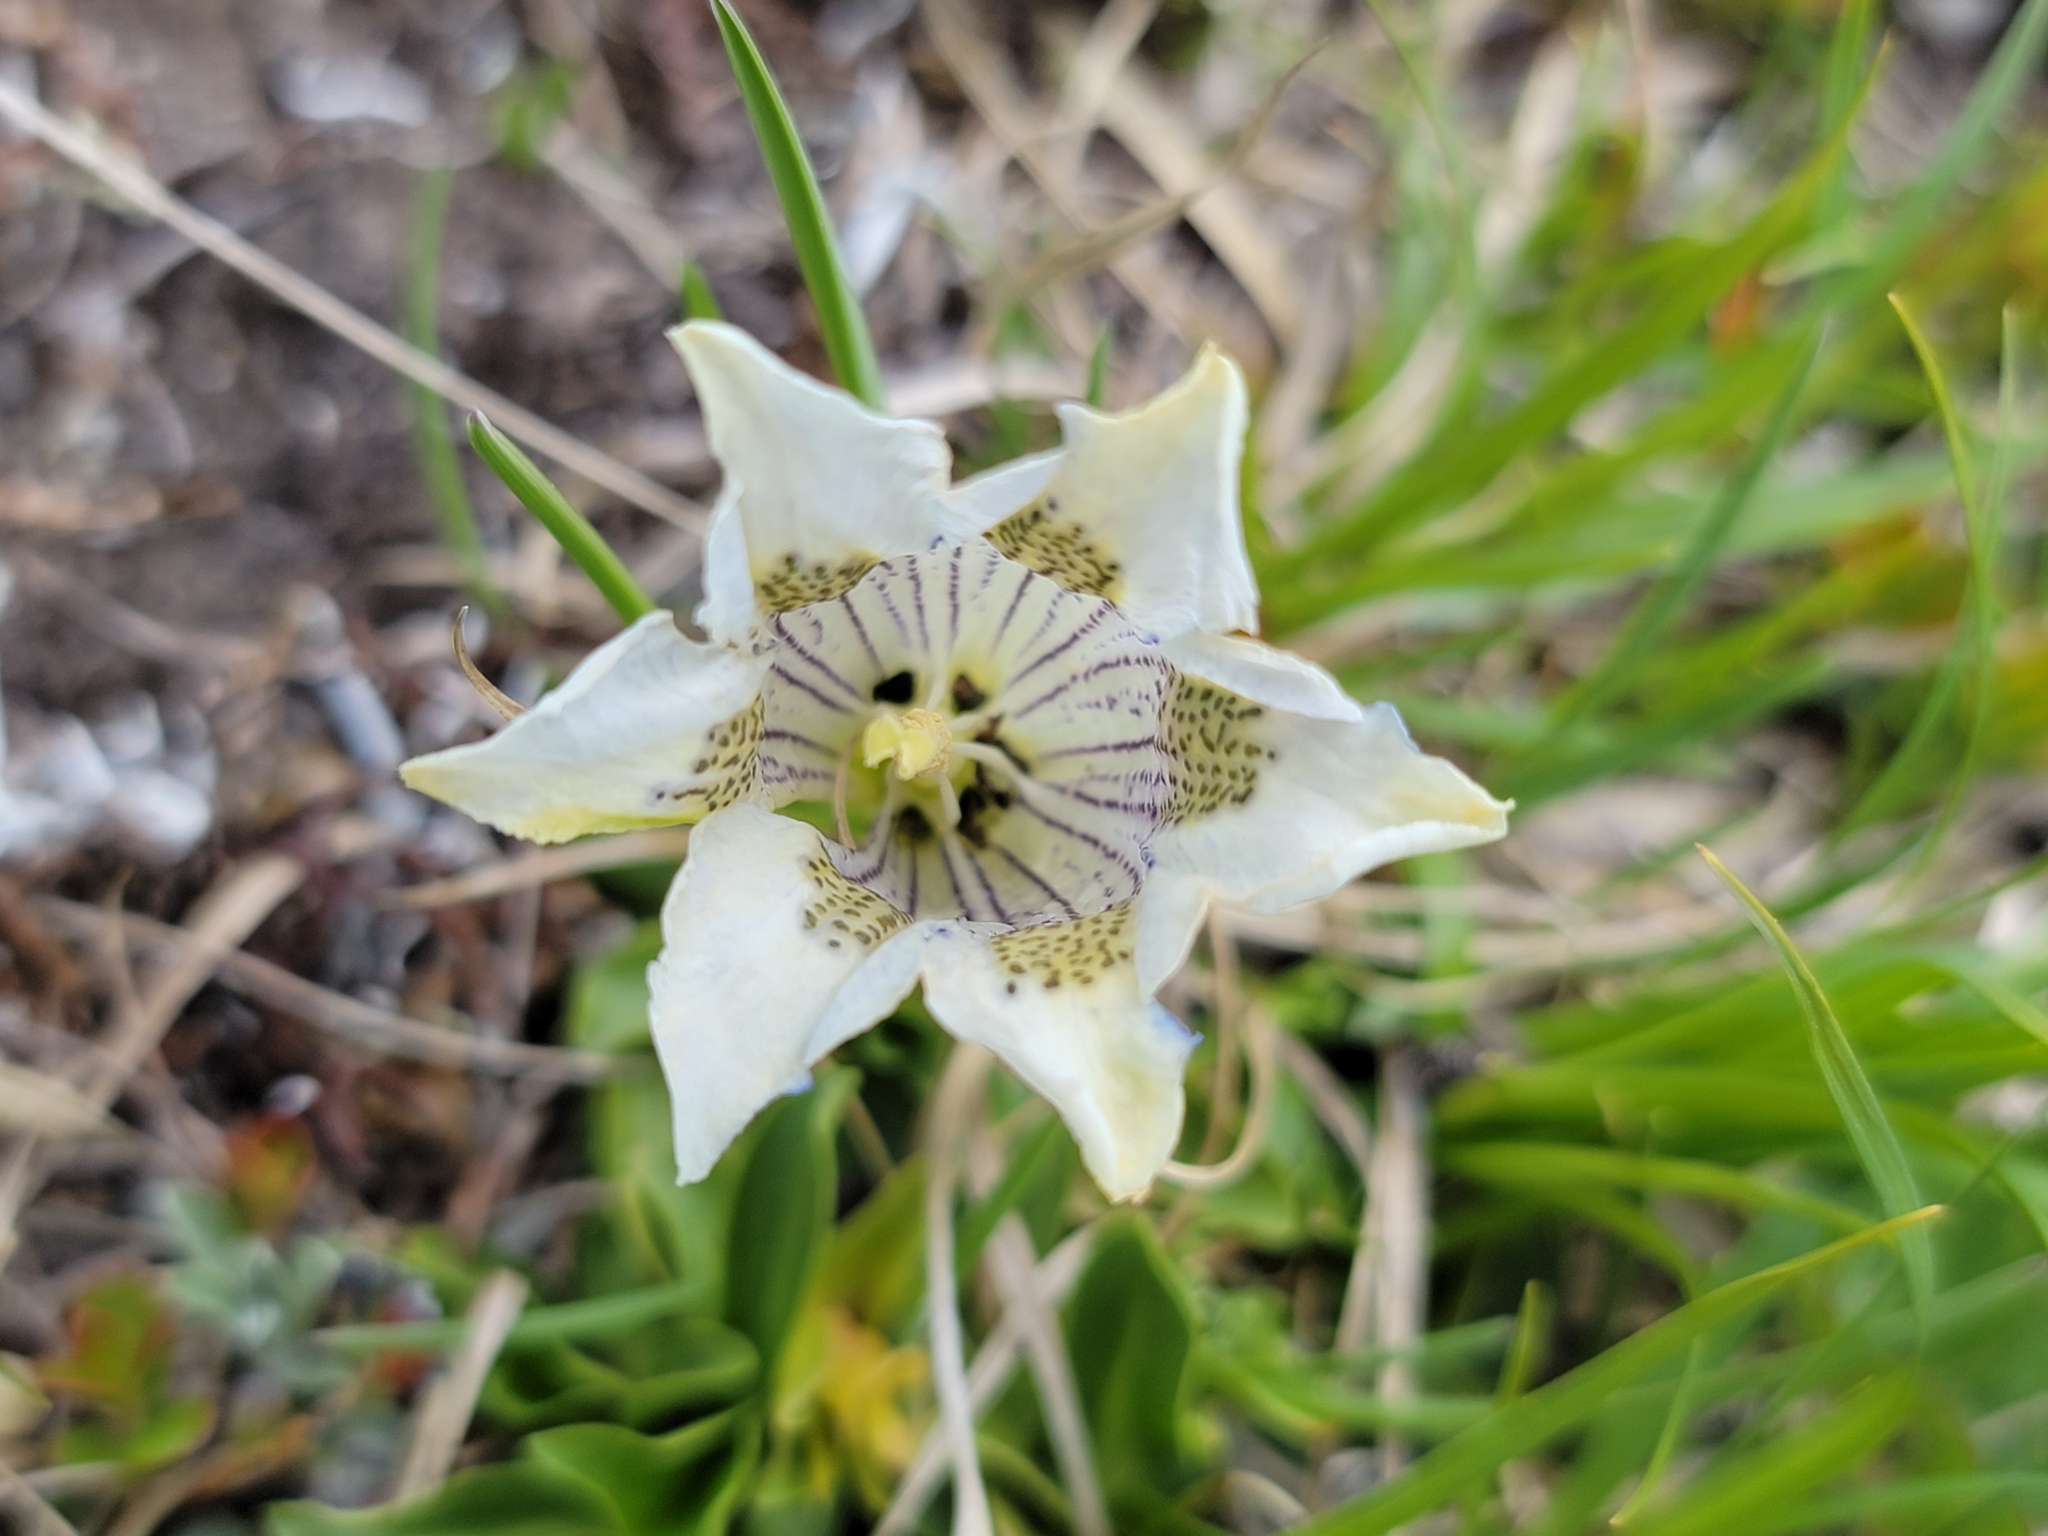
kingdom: Plantae
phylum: Tracheophyta
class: Magnoliopsida
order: Gentianales
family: Gentianaceae
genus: Gentiana
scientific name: Gentiana acaulis
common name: Trumpet gentian
